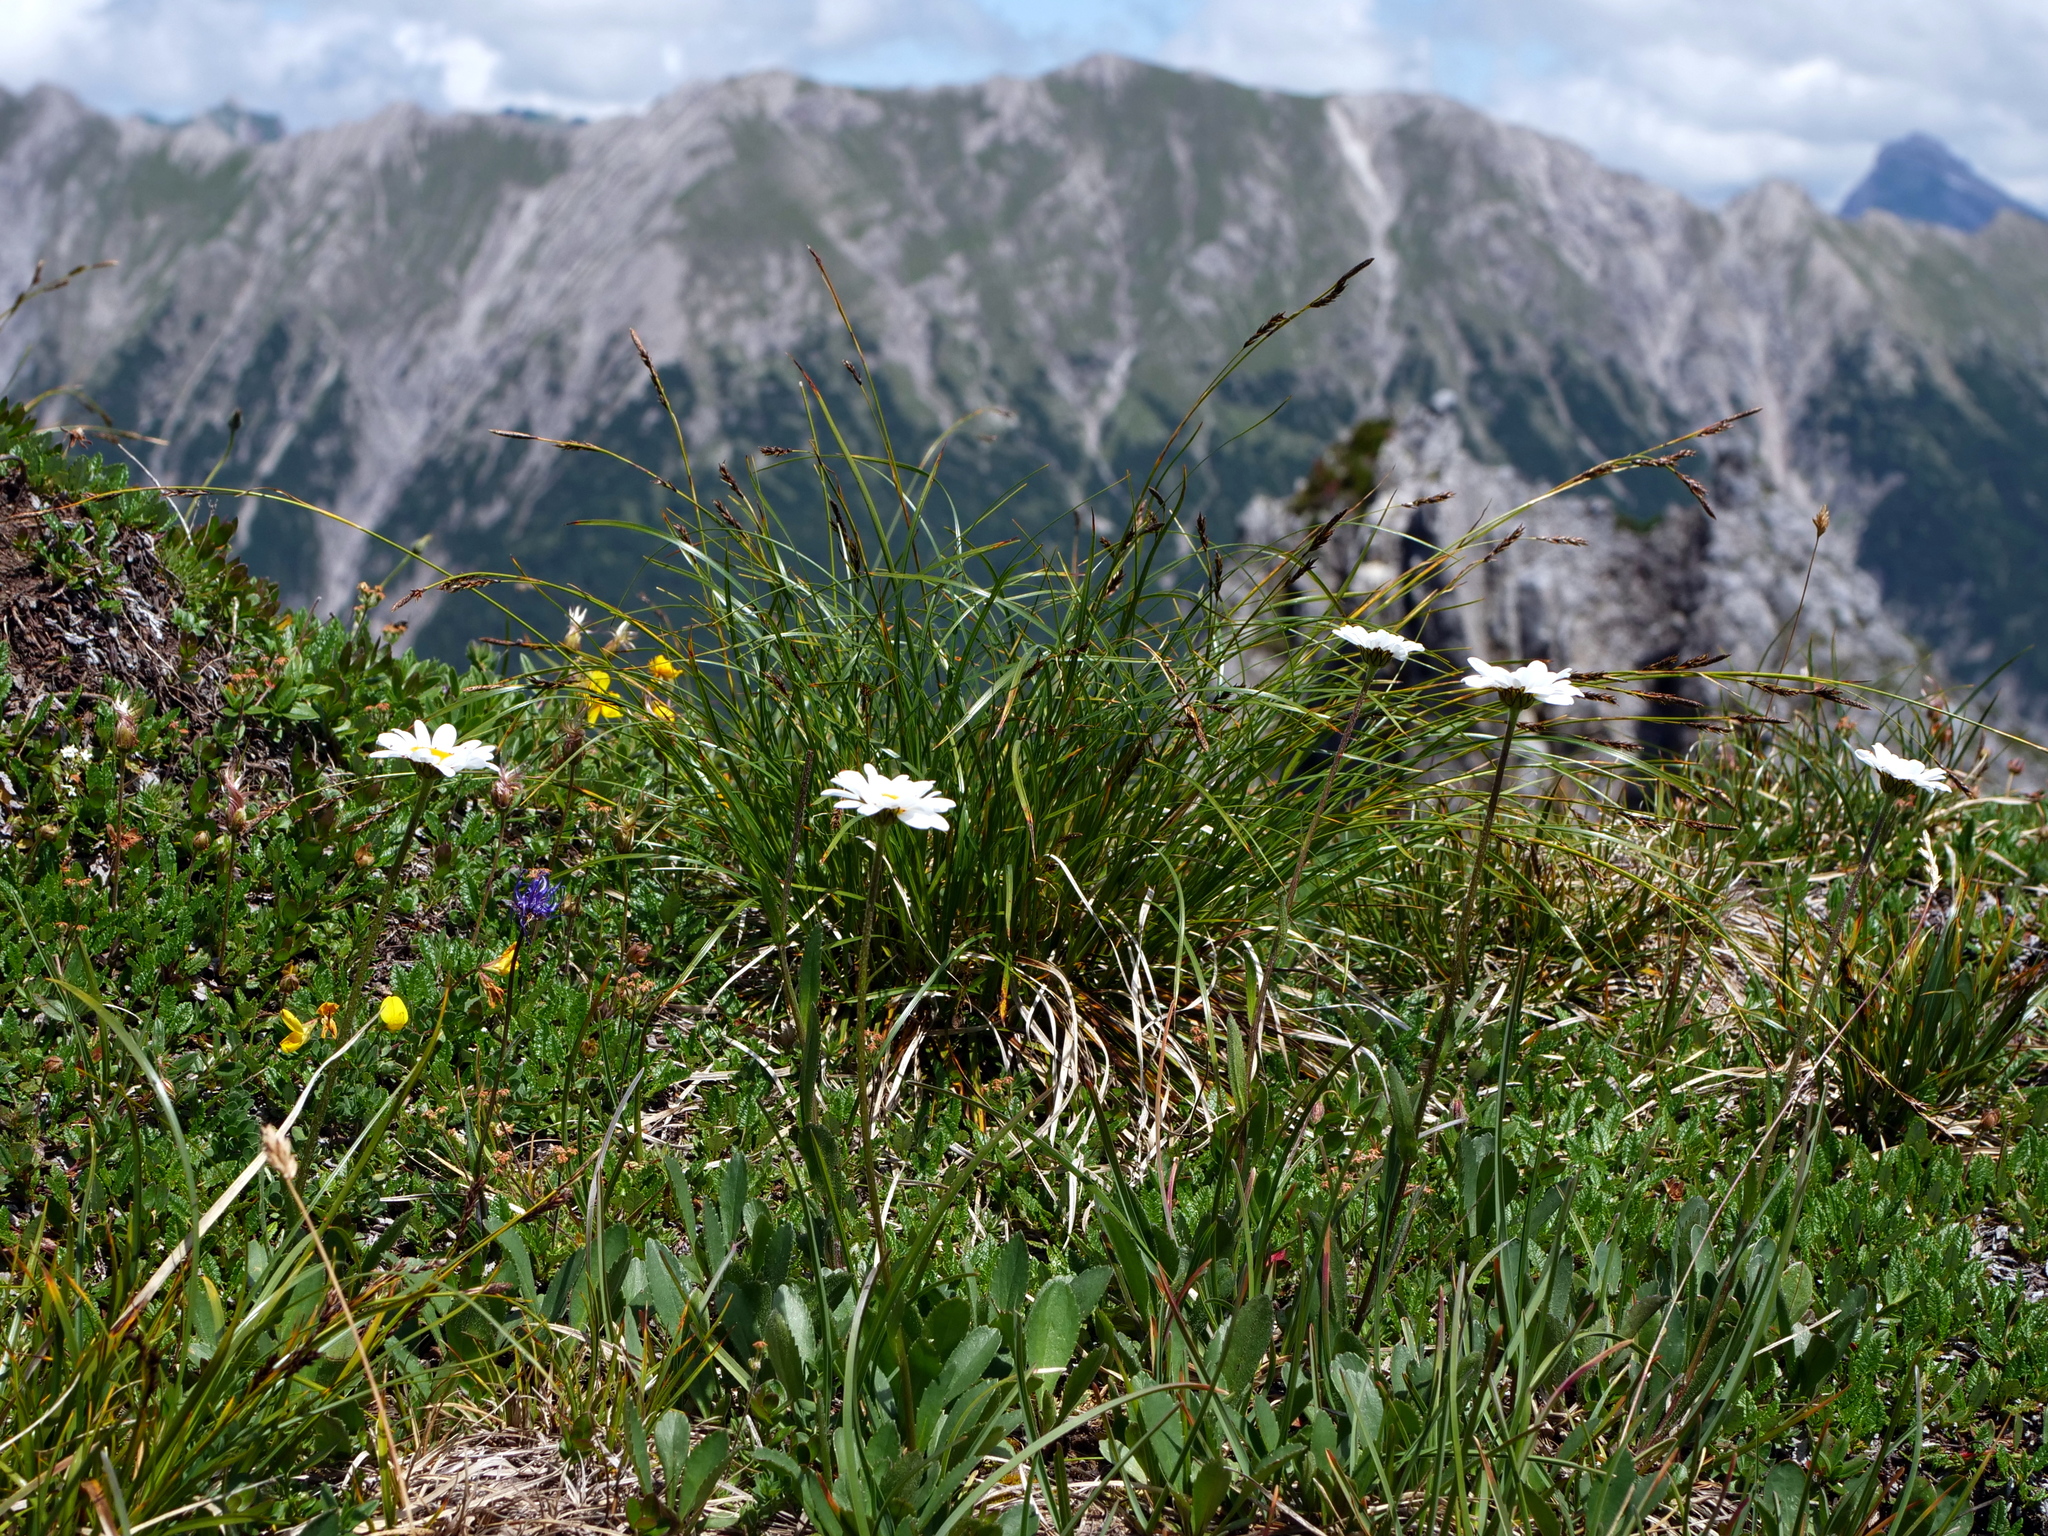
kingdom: Plantae
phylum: Tracheophyta
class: Magnoliopsida
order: Asterales
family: Asteraceae
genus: Leucanthemum
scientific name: Leucanthemum adustum
